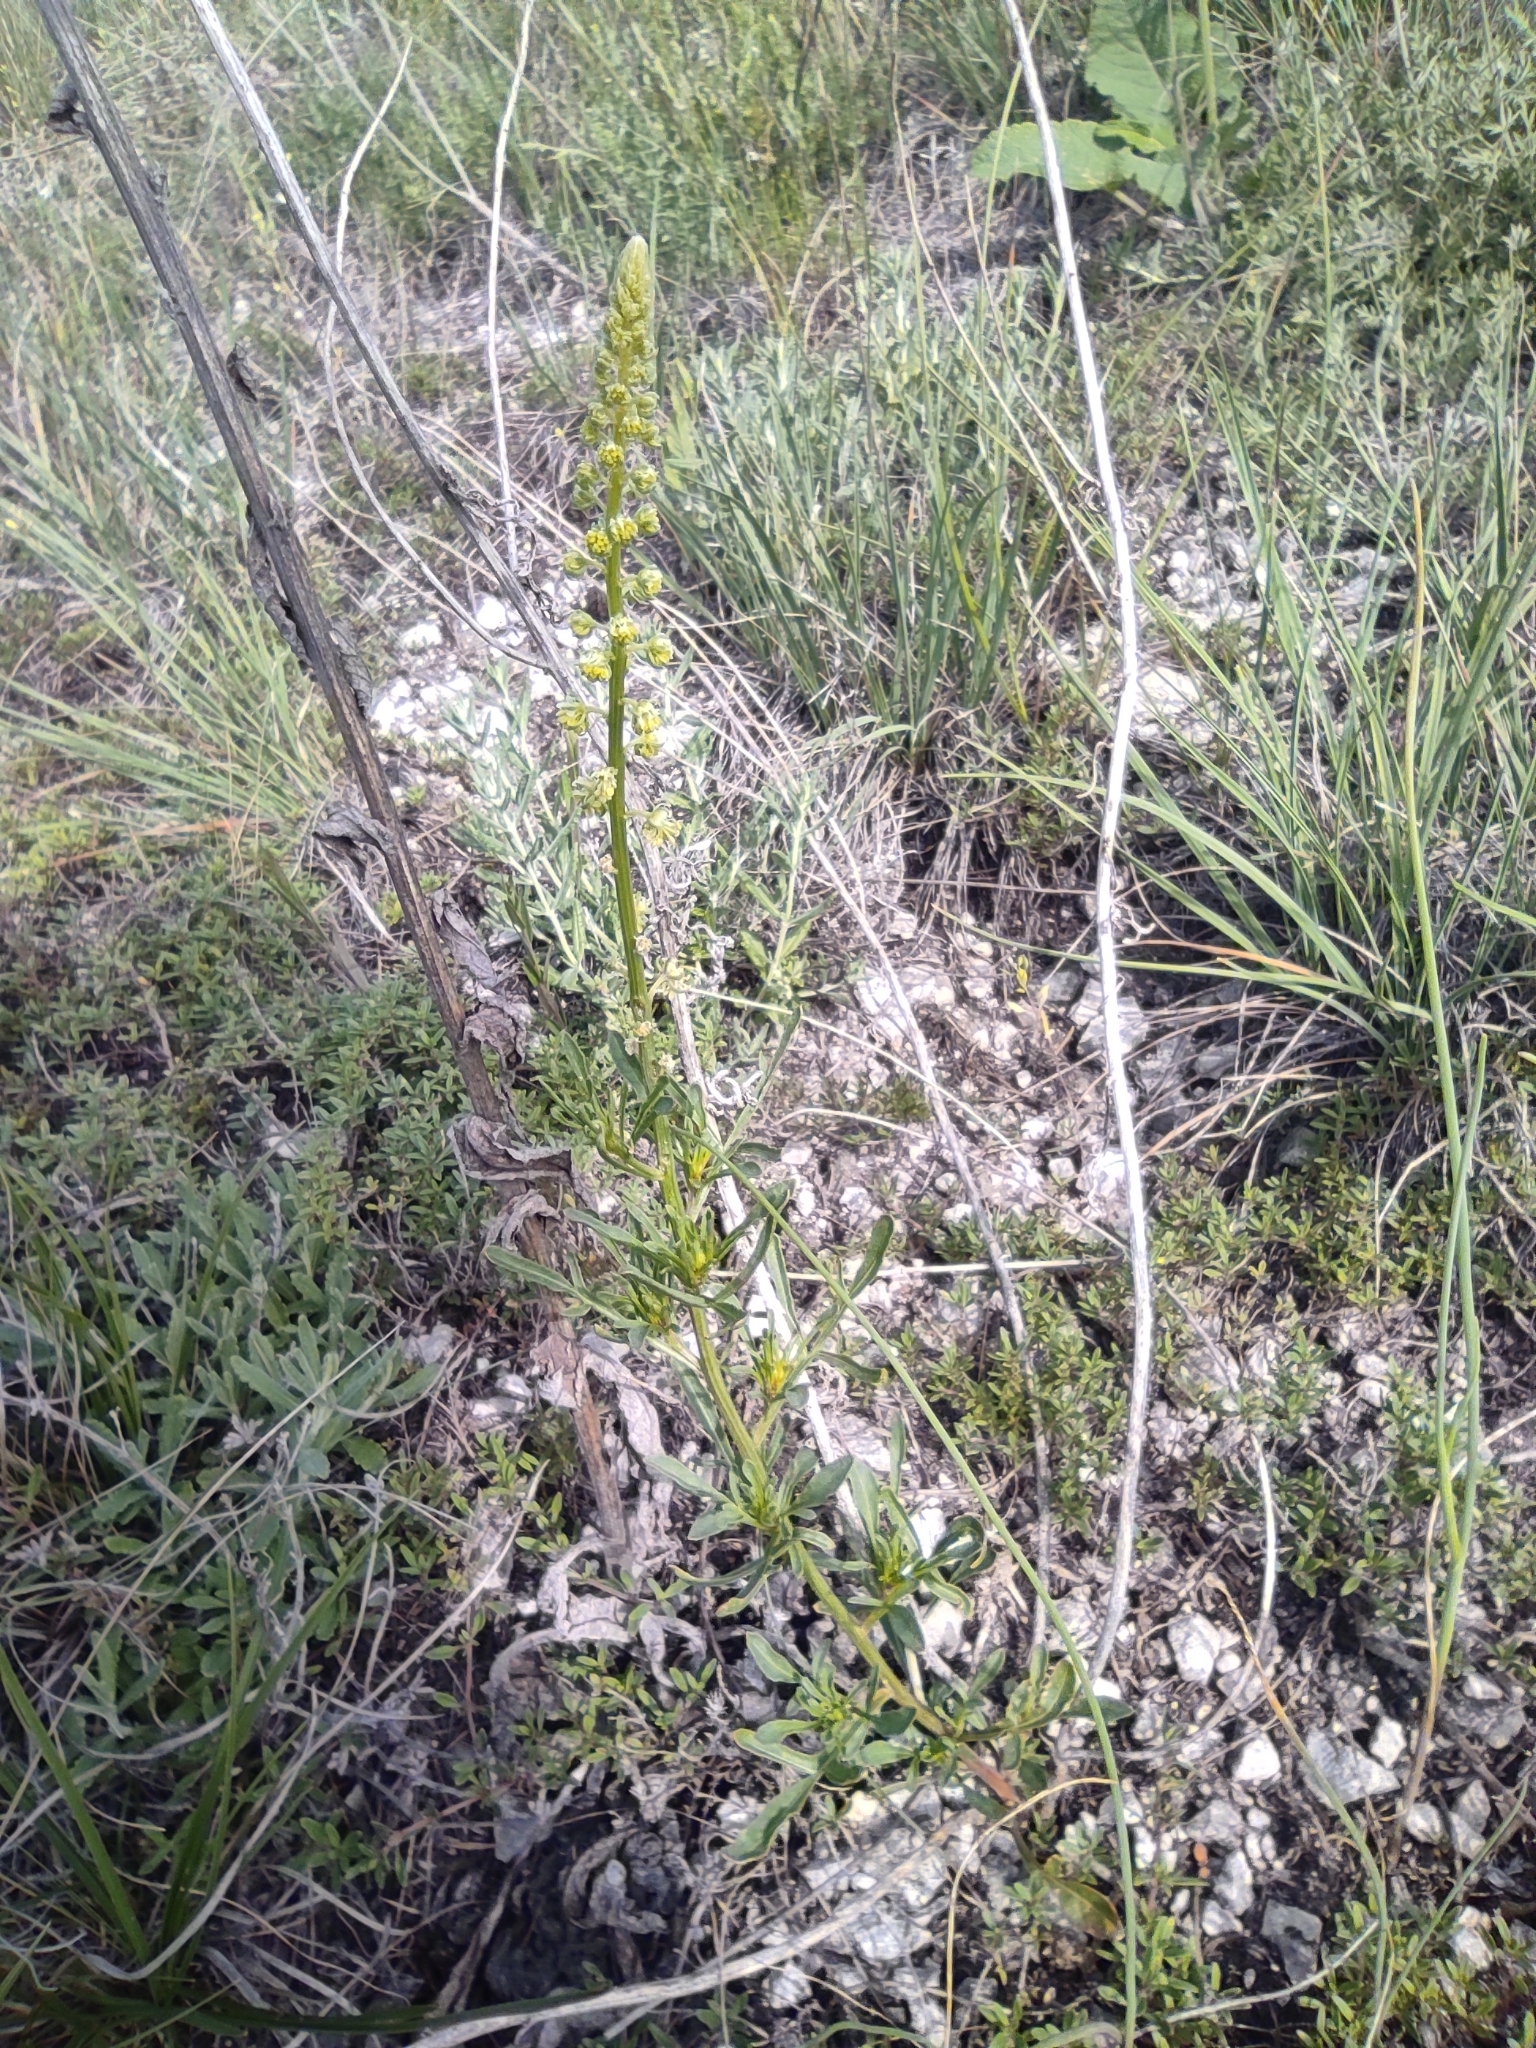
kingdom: Plantae
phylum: Tracheophyta
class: Magnoliopsida
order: Brassicales
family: Resedaceae
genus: Reseda
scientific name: Reseda lutea
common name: Wild mignonette
